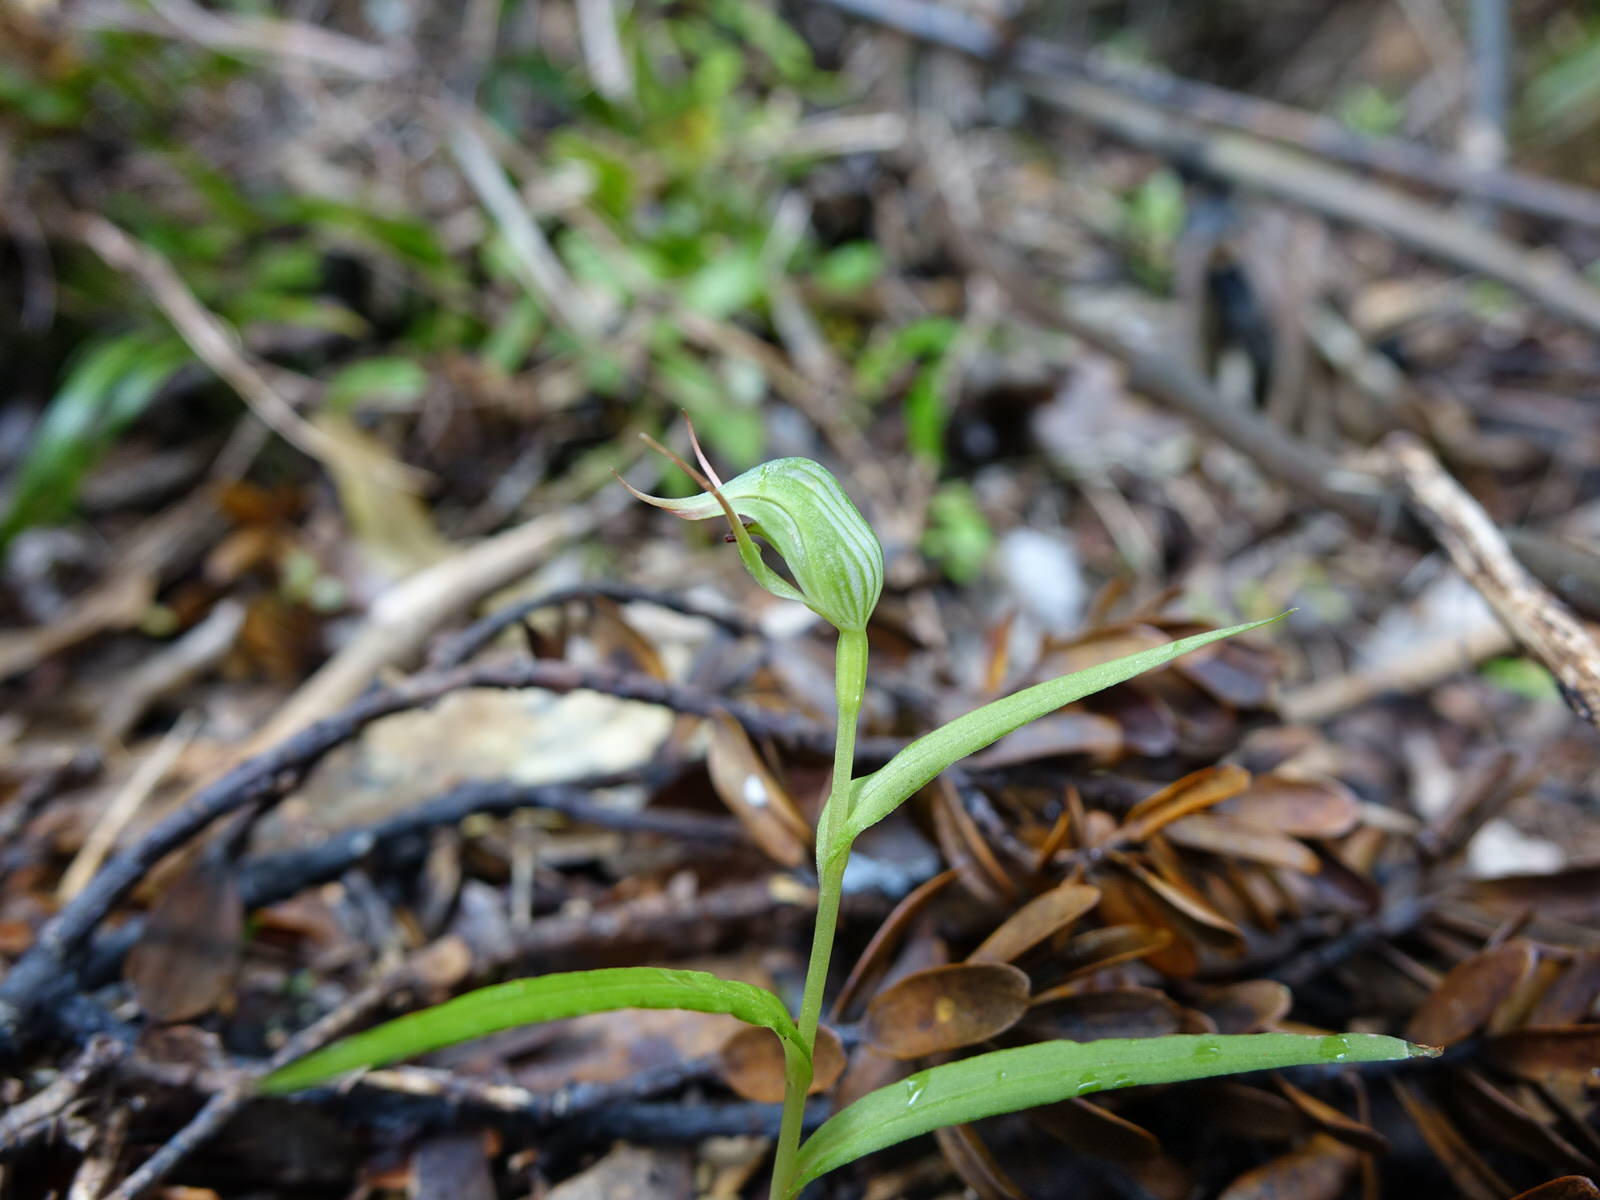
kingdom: Plantae
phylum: Tracheophyta
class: Liliopsida
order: Asparagales
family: Orchidaceae
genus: Pterostylis
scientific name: Pterostylis agathicola
